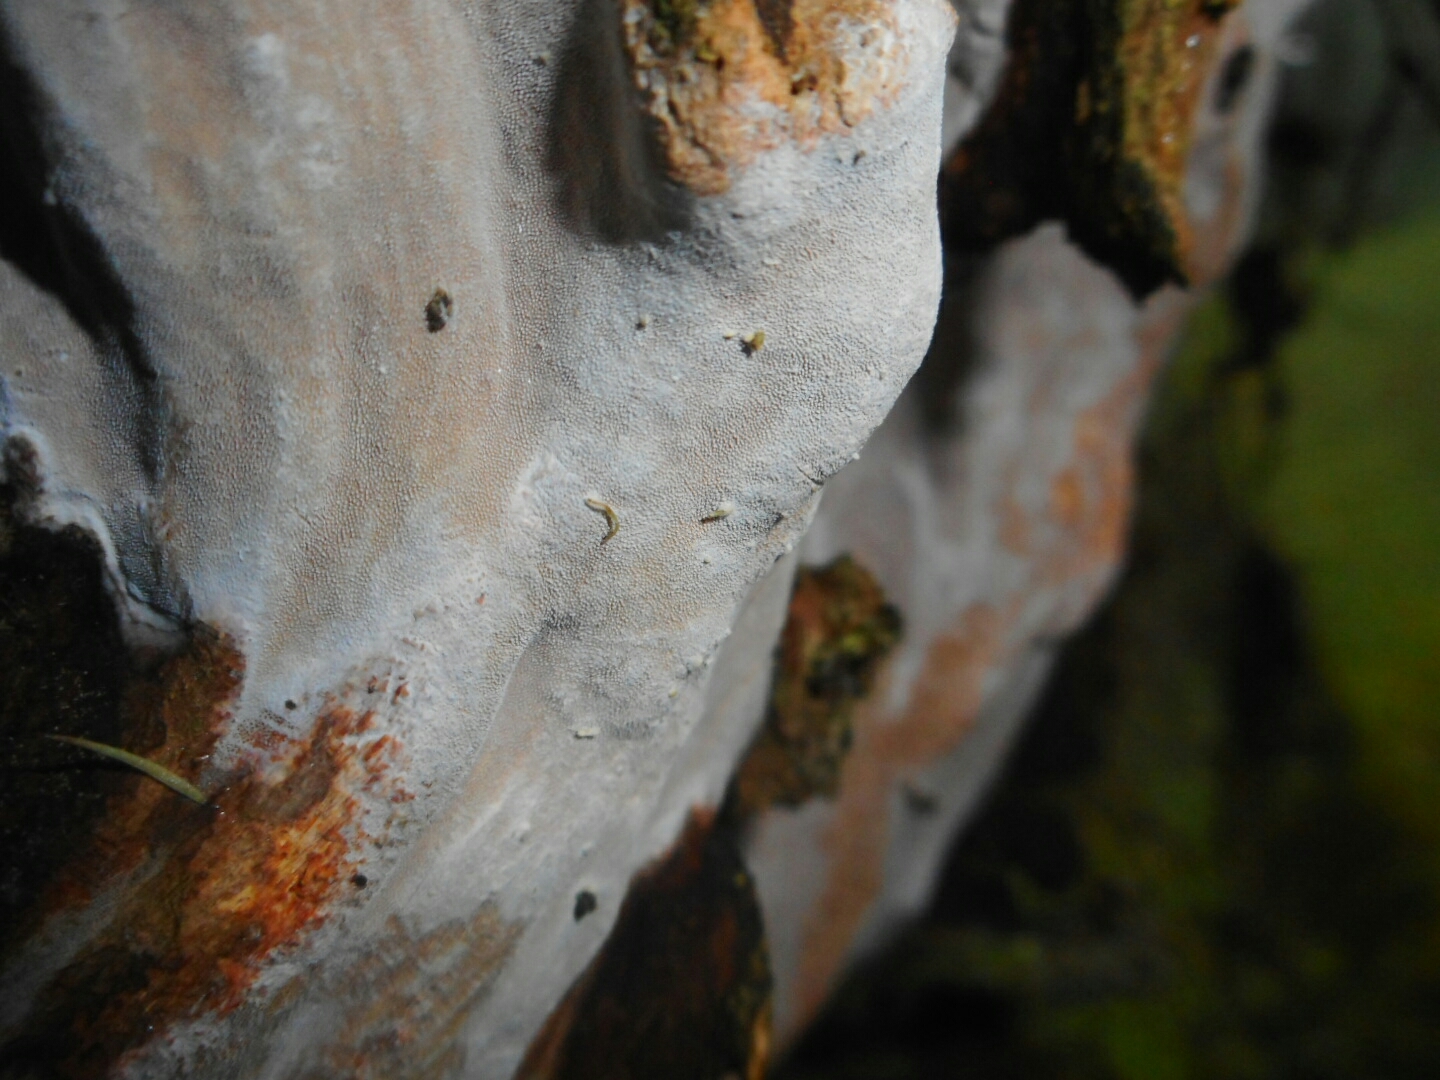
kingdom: Fungi
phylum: Basidiomycota
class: Agaricomycetes
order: Hymenochaetales
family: Hymenochaetaceae
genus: Erythromyces
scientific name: Erythromyces crocicreas
